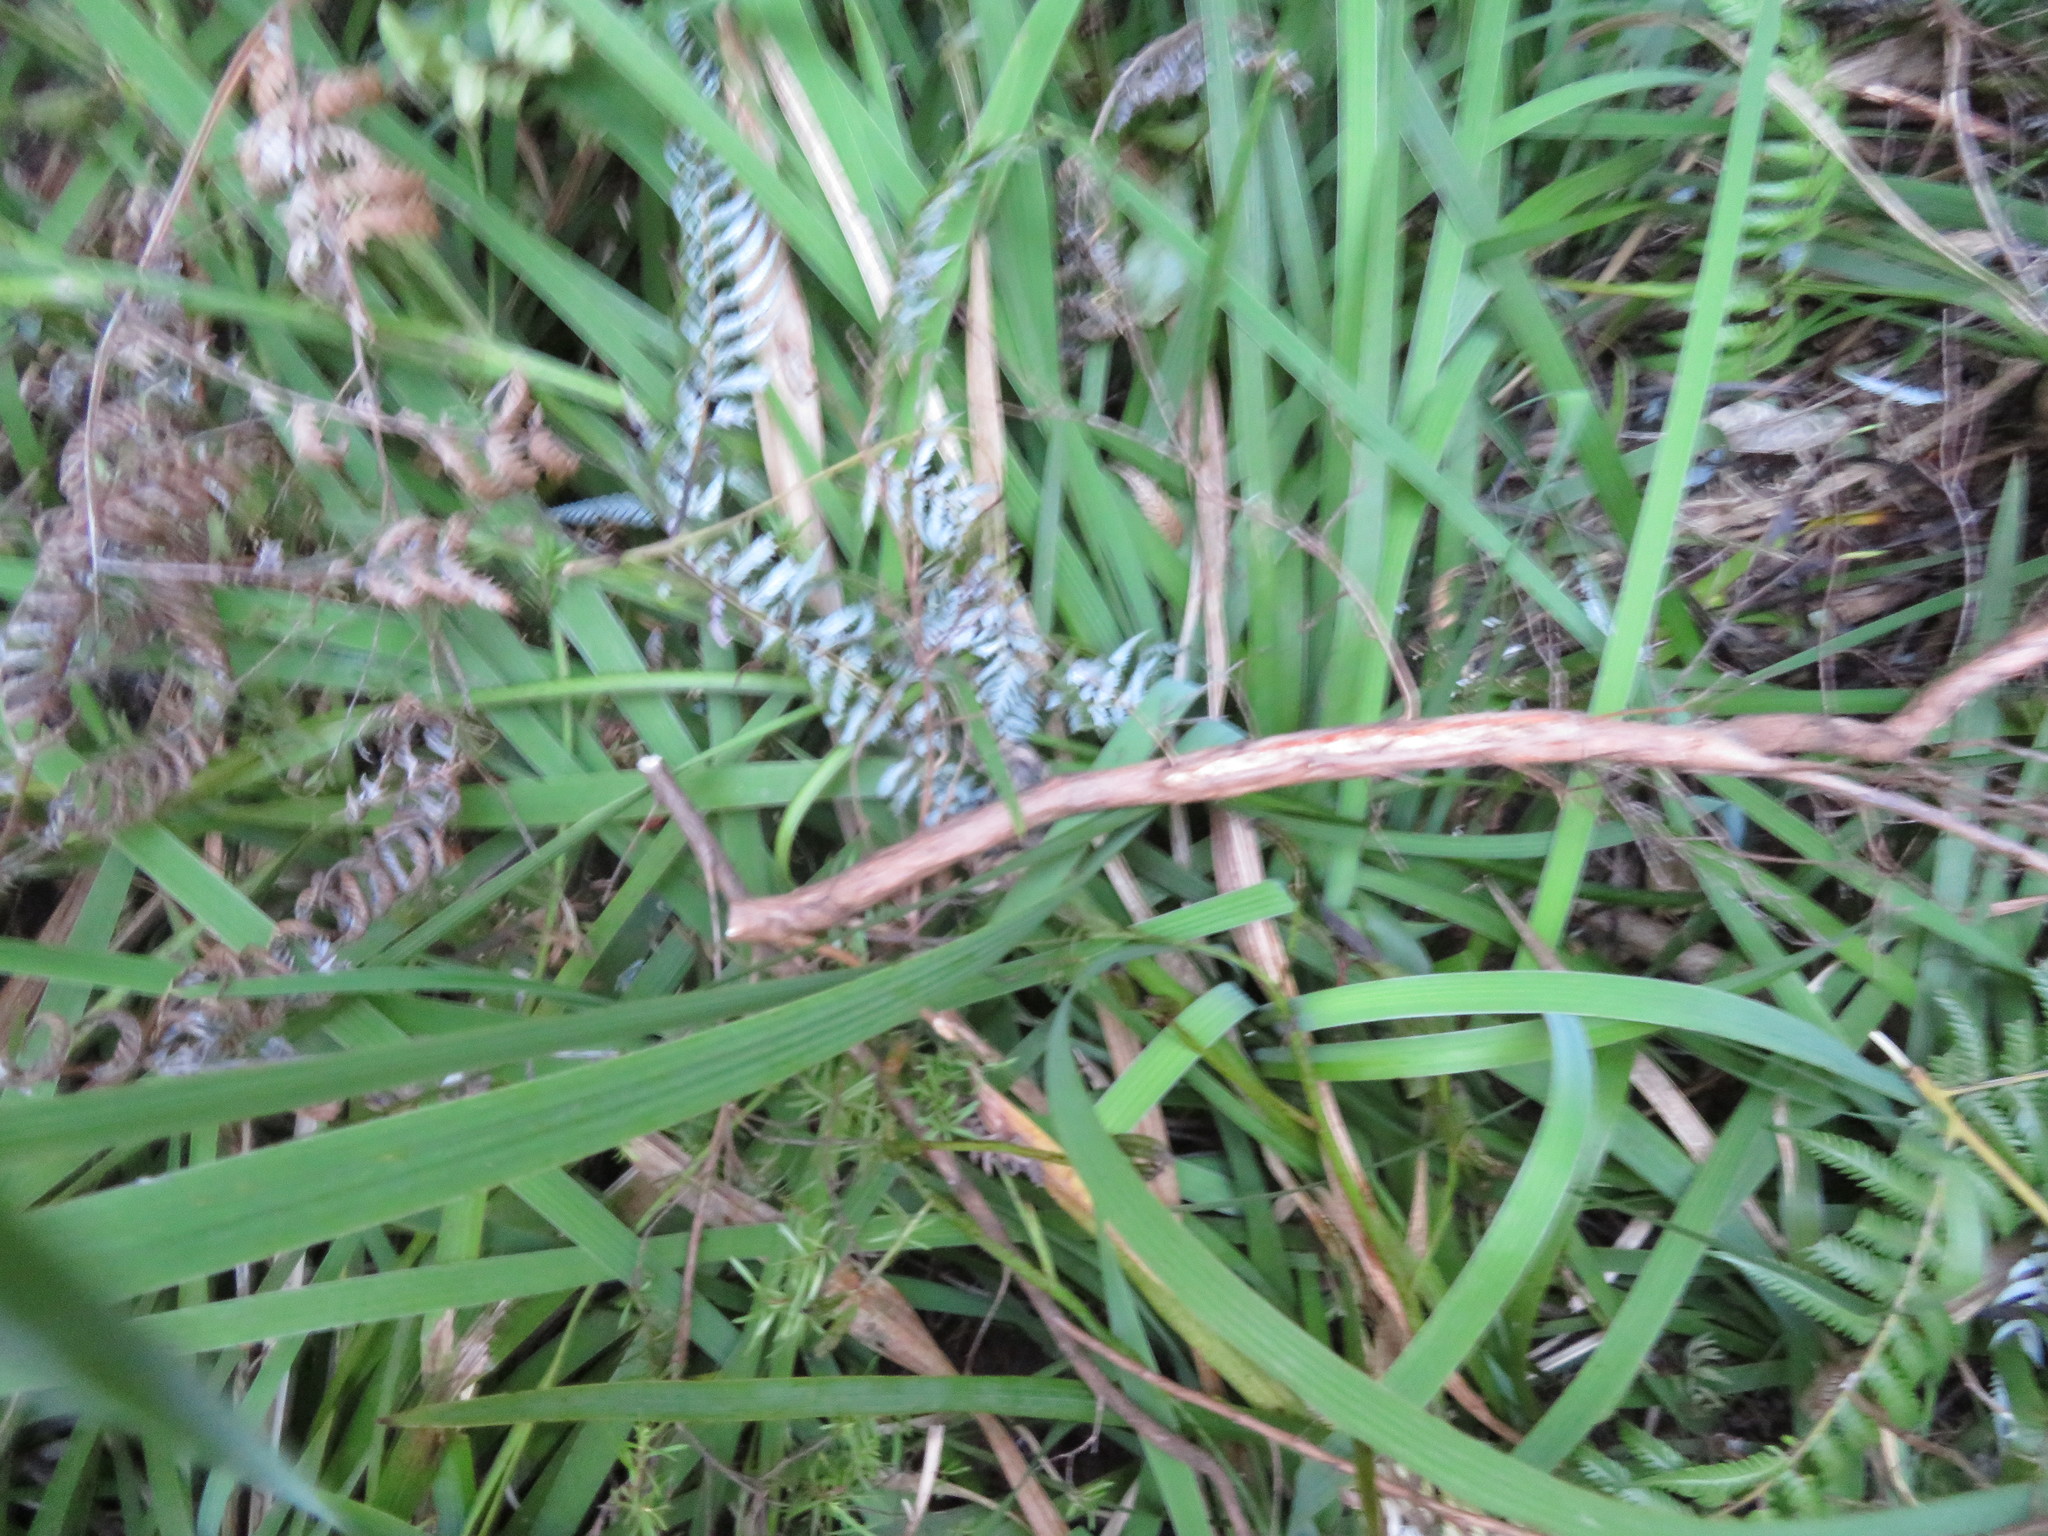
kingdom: Plantae
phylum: Tracheophyta
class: Liliopsida
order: Asparagales
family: Iridaceae
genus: Aristea
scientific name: Aristea ecklonii
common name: Blue corn-lily
